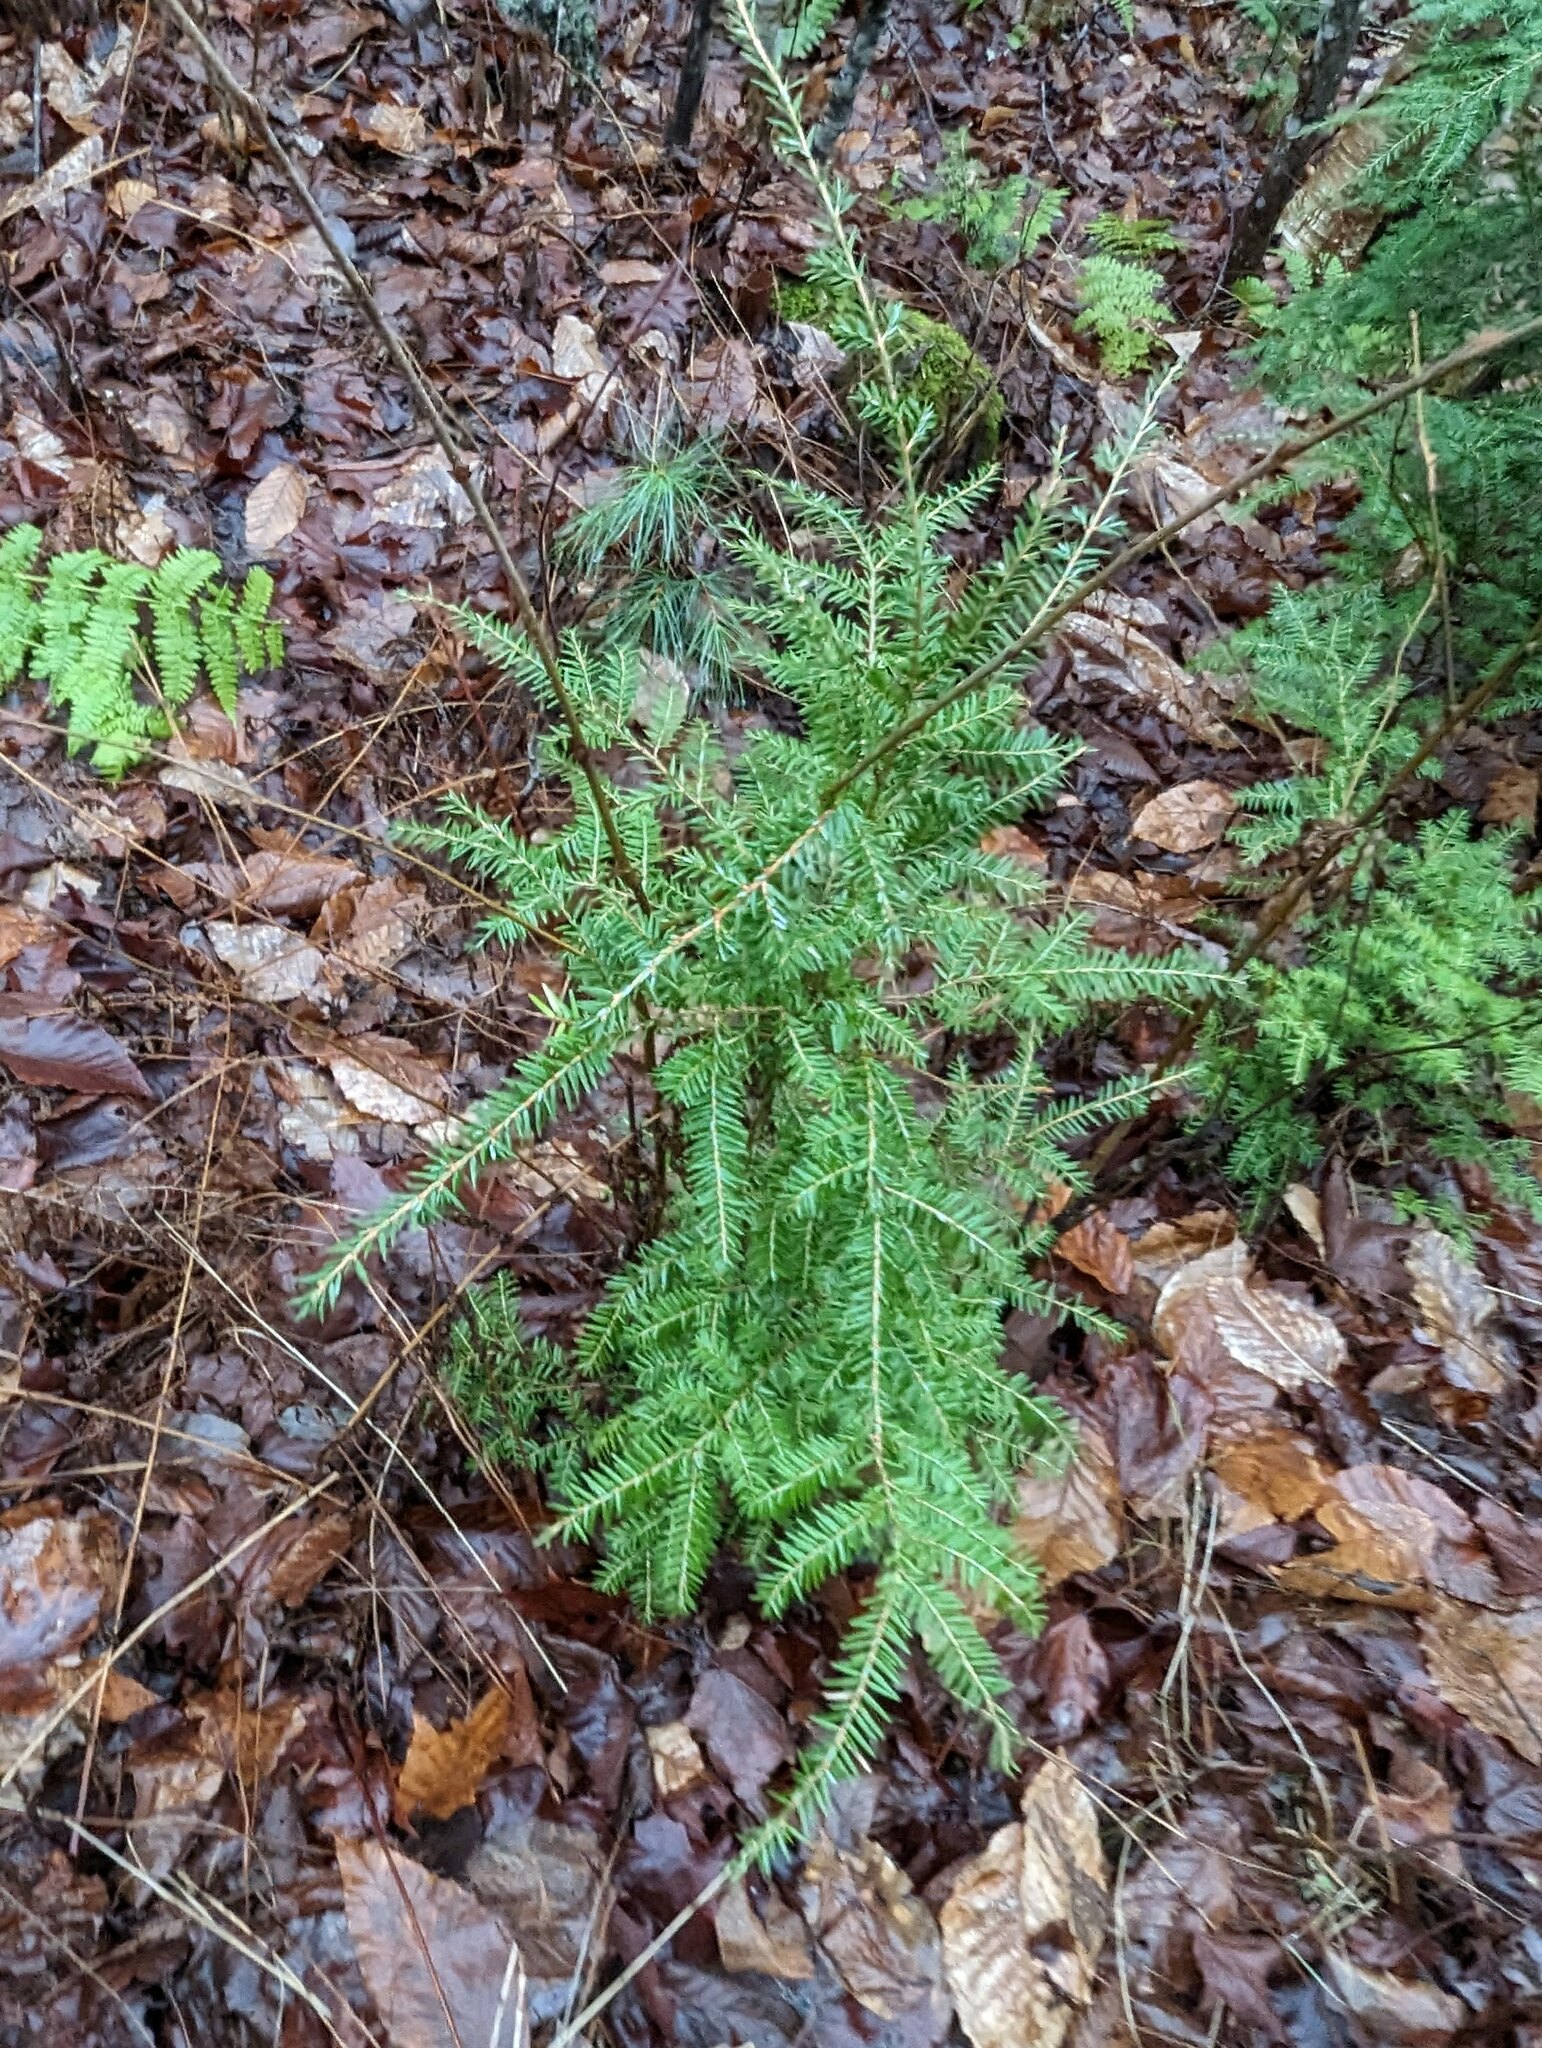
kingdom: Plantae
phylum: Tracheophyta
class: Pinopsida
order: Pinales
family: Pinaceae
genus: Tsuga
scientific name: Tsuga canadensis
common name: Eastern hemlock
